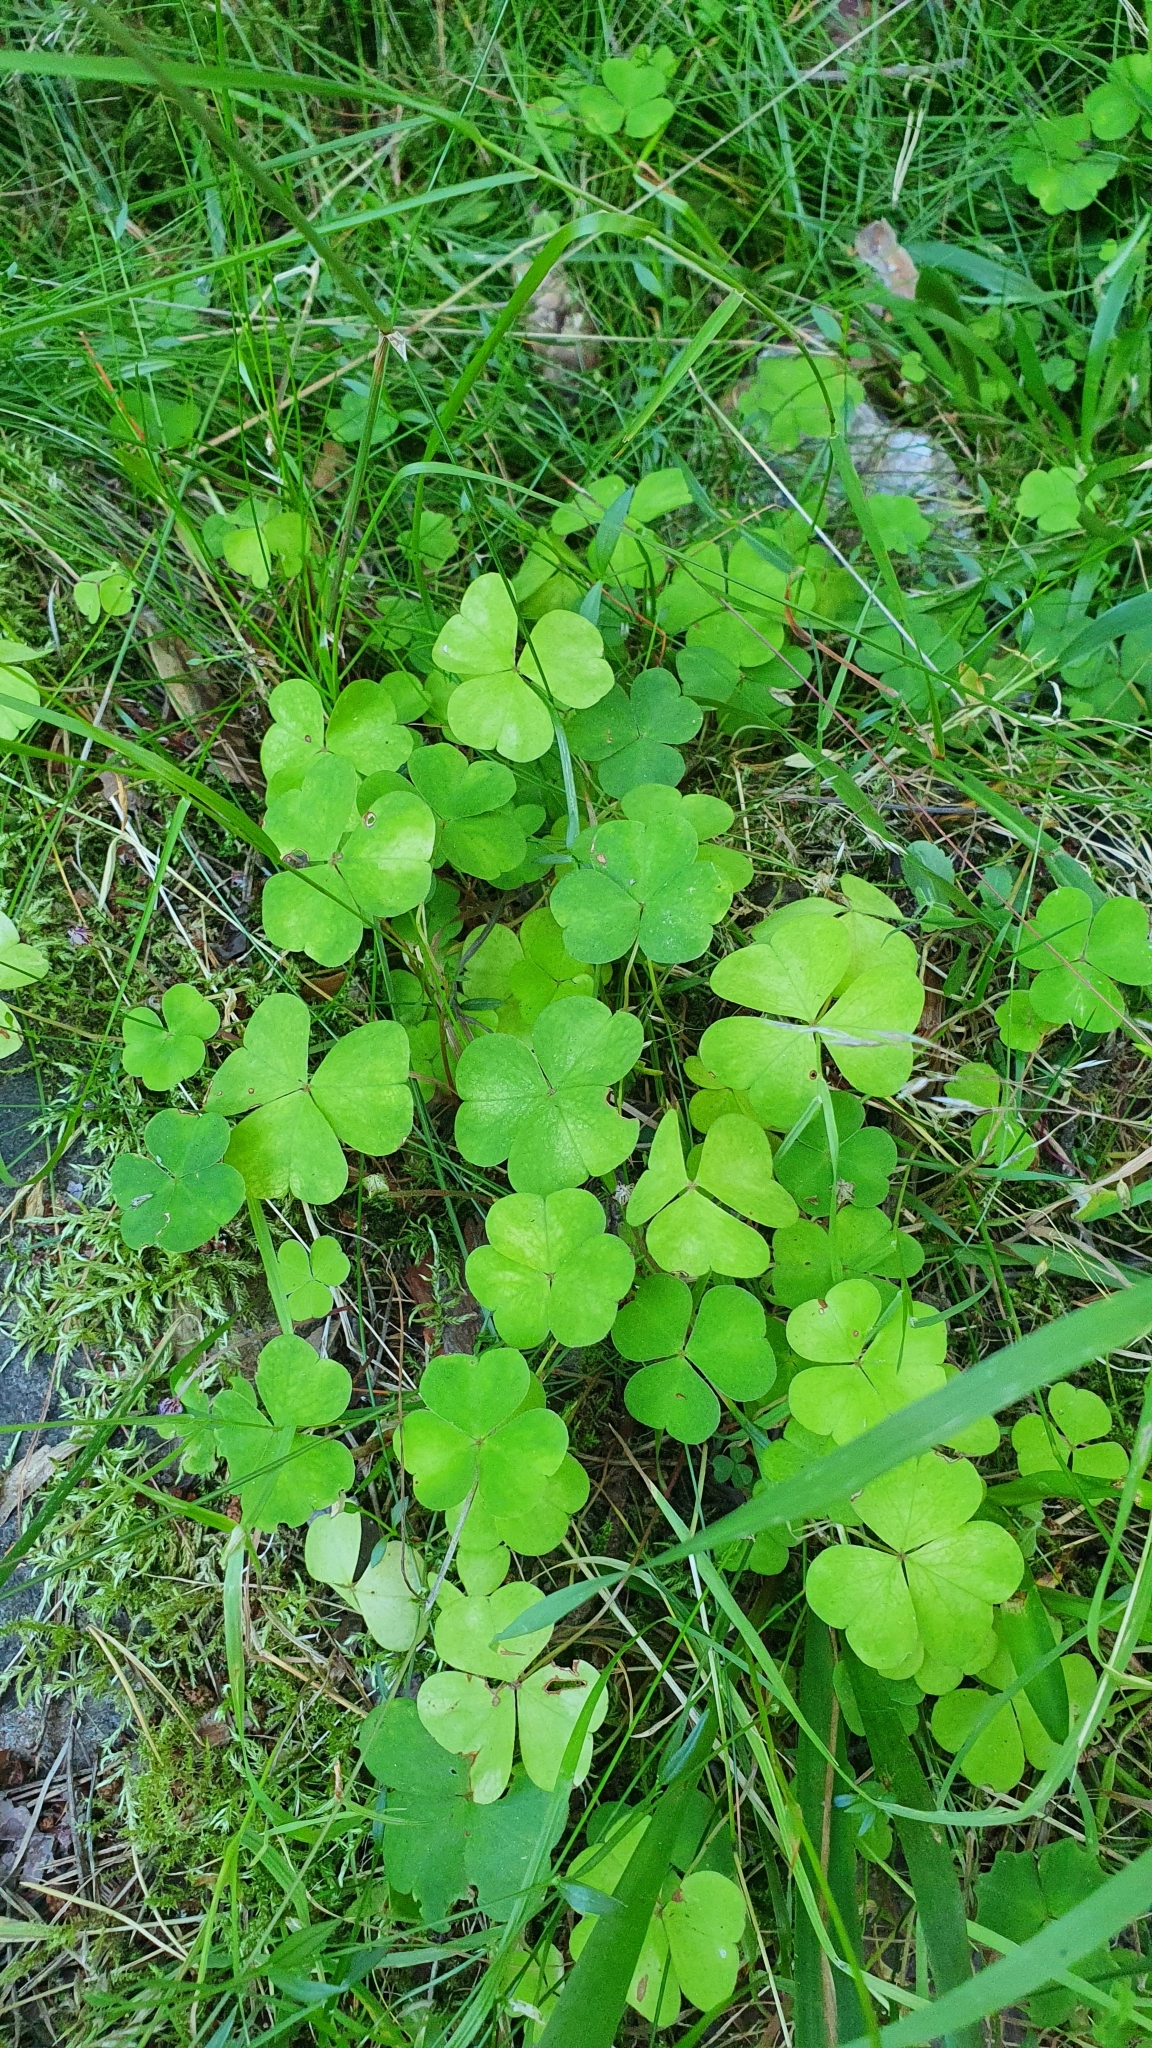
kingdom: Plantae
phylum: Tracheophyta
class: Magnoliopsida
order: Oxalidales
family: Oxalidaceae
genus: Oxalis
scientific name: Oxalis acetosella
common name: Wood-sorrel
